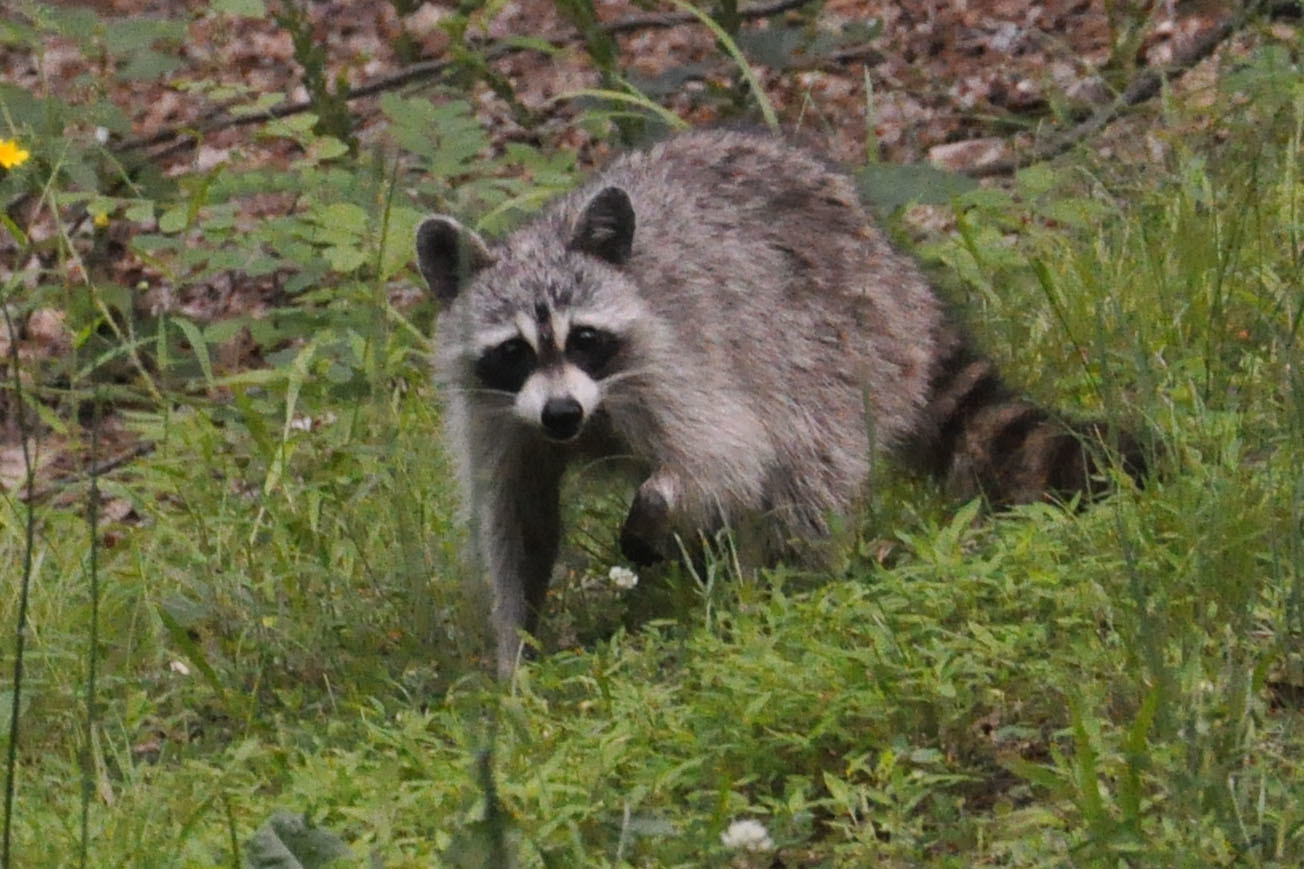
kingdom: Animalia
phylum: Chordata
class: Mammalia
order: Carnivora
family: Procyonidae
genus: Procyon
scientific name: Procyon lotor
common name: Raccoon
